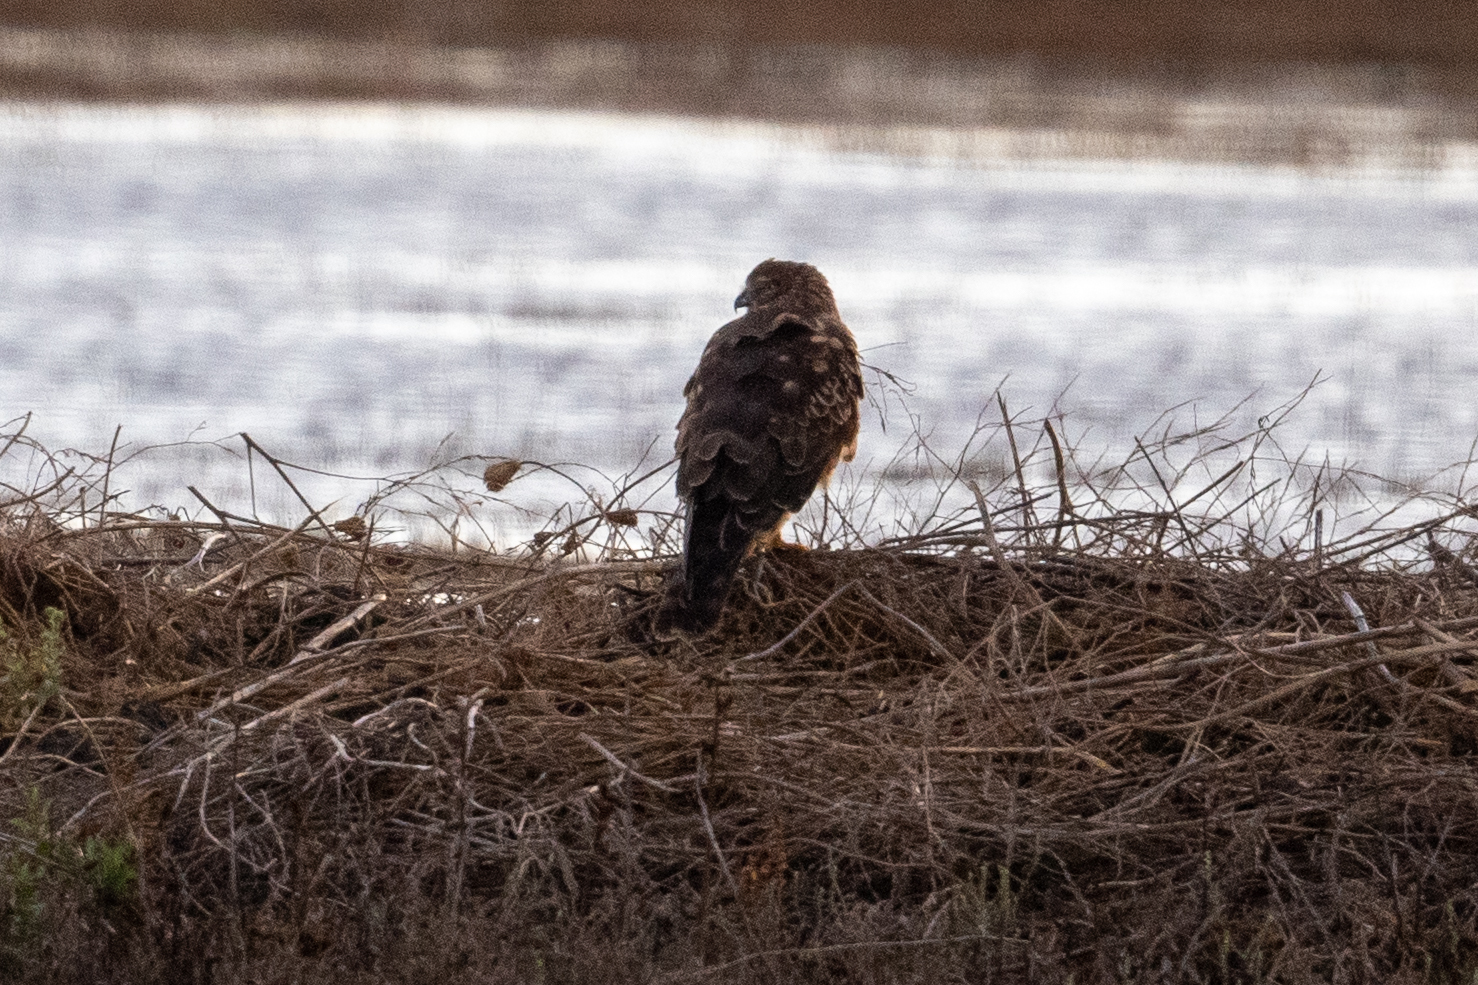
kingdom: Animalia
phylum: Chordata
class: Aves
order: Accipitriformes
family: Accipitridae
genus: Circus
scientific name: Circus cyaneus
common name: Hen harrier
